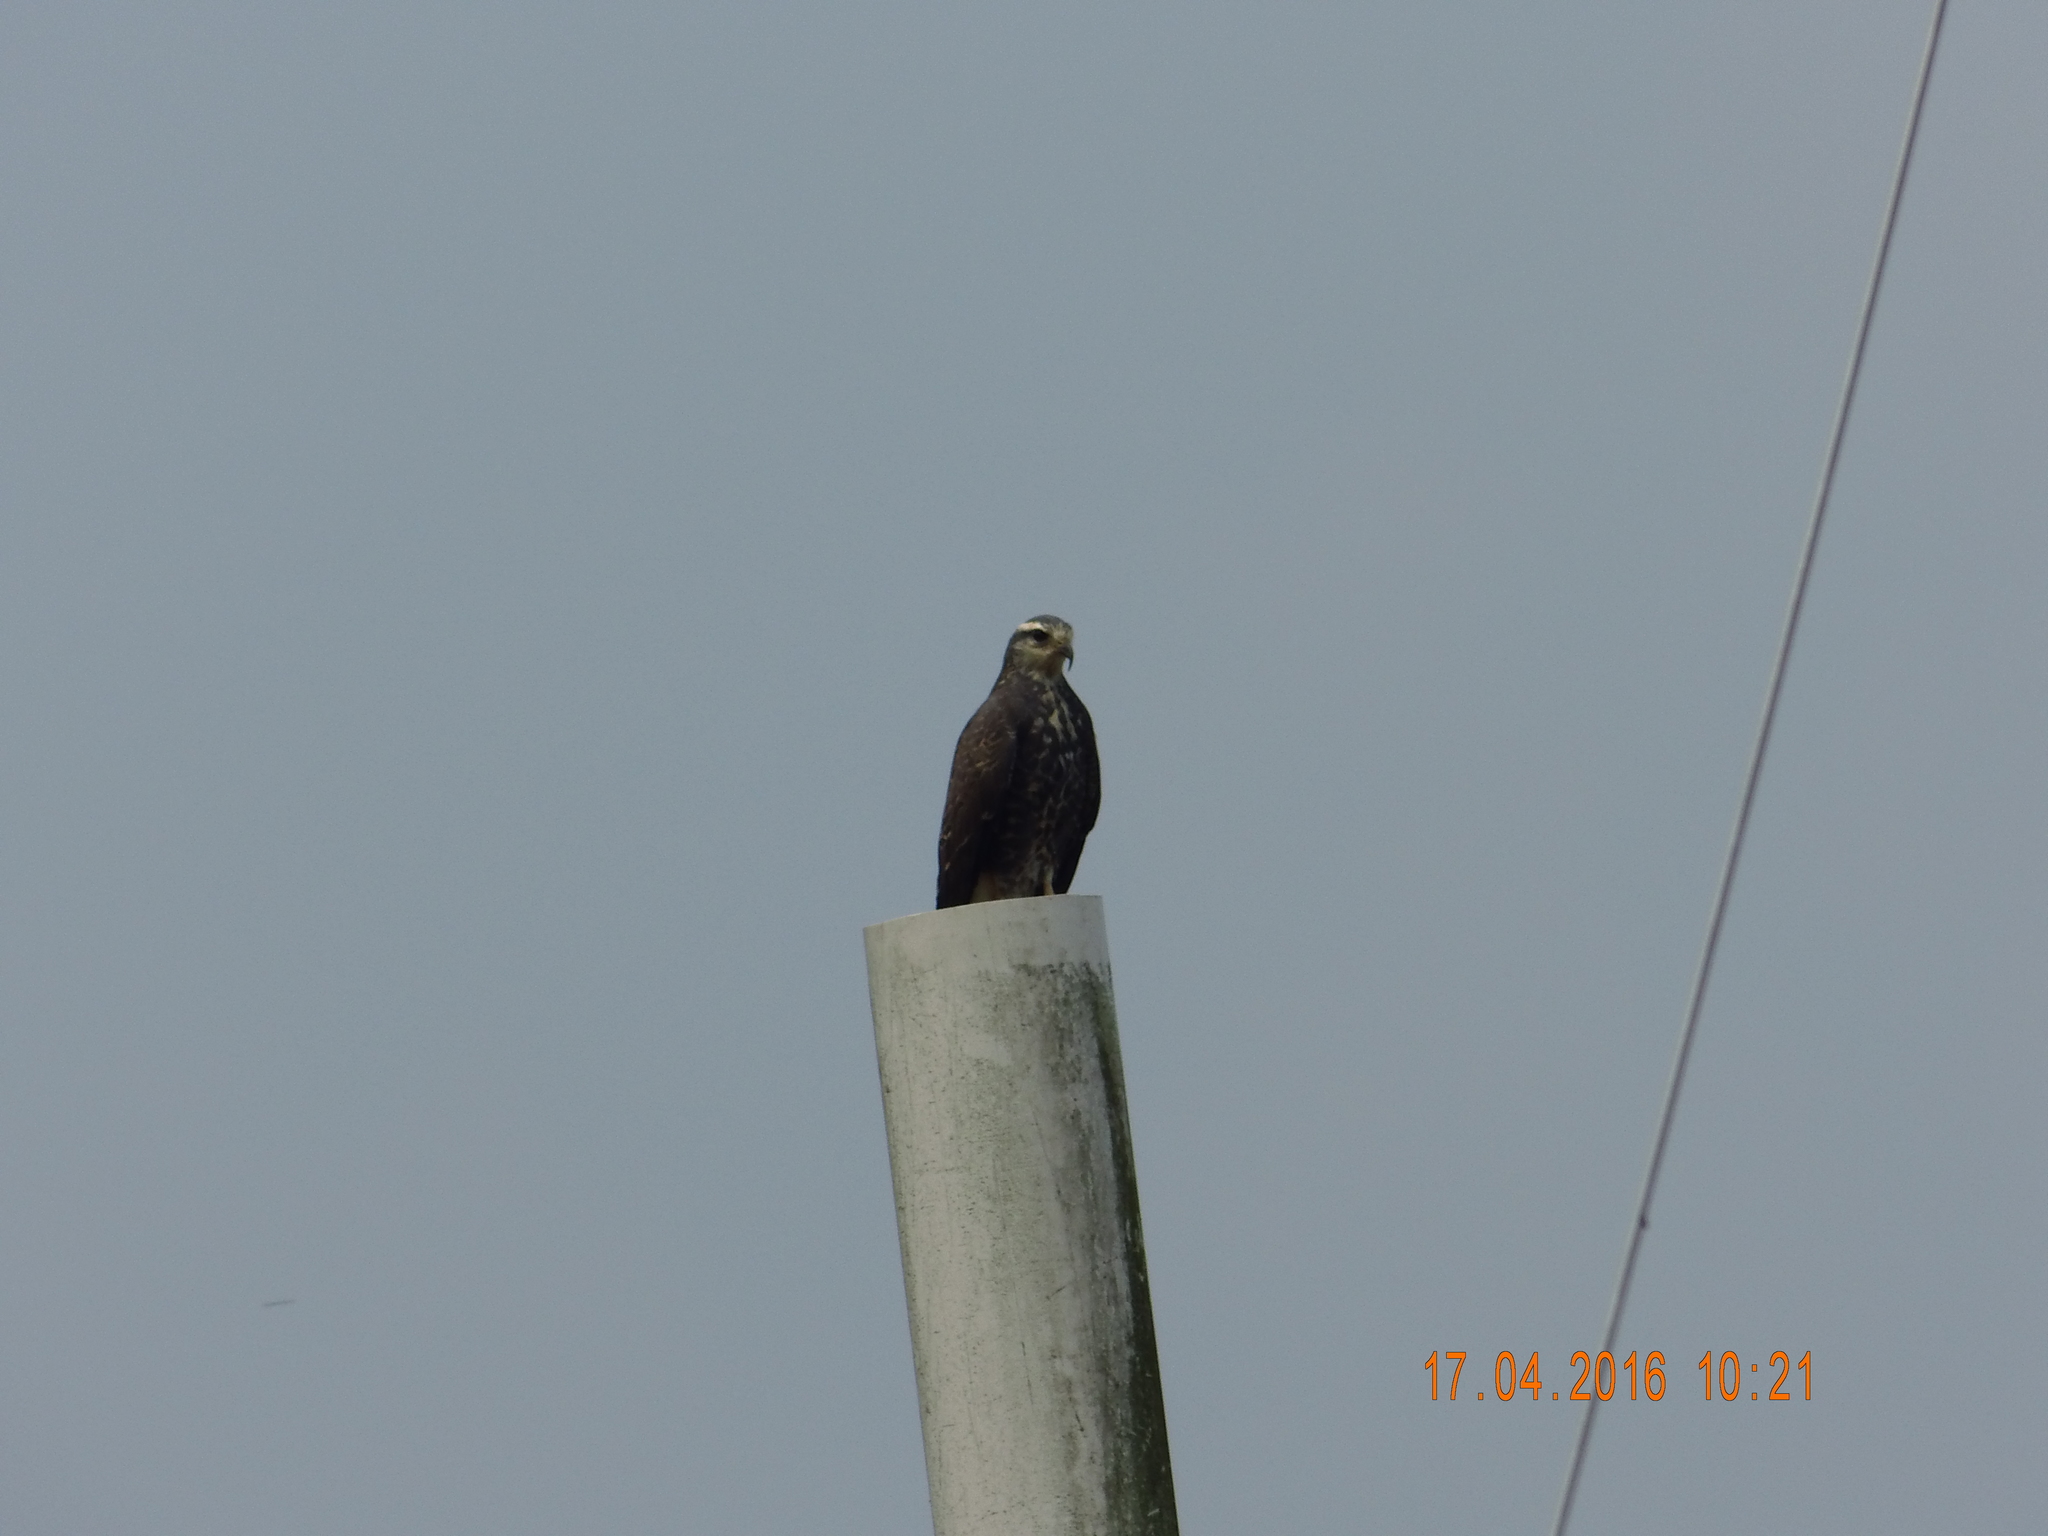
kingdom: Animalia
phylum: Chordata
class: Aves
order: Accipitriformes
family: Accipitridae
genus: Rostrhamus
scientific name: Rostrhamus sociabilis
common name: Snail kite
